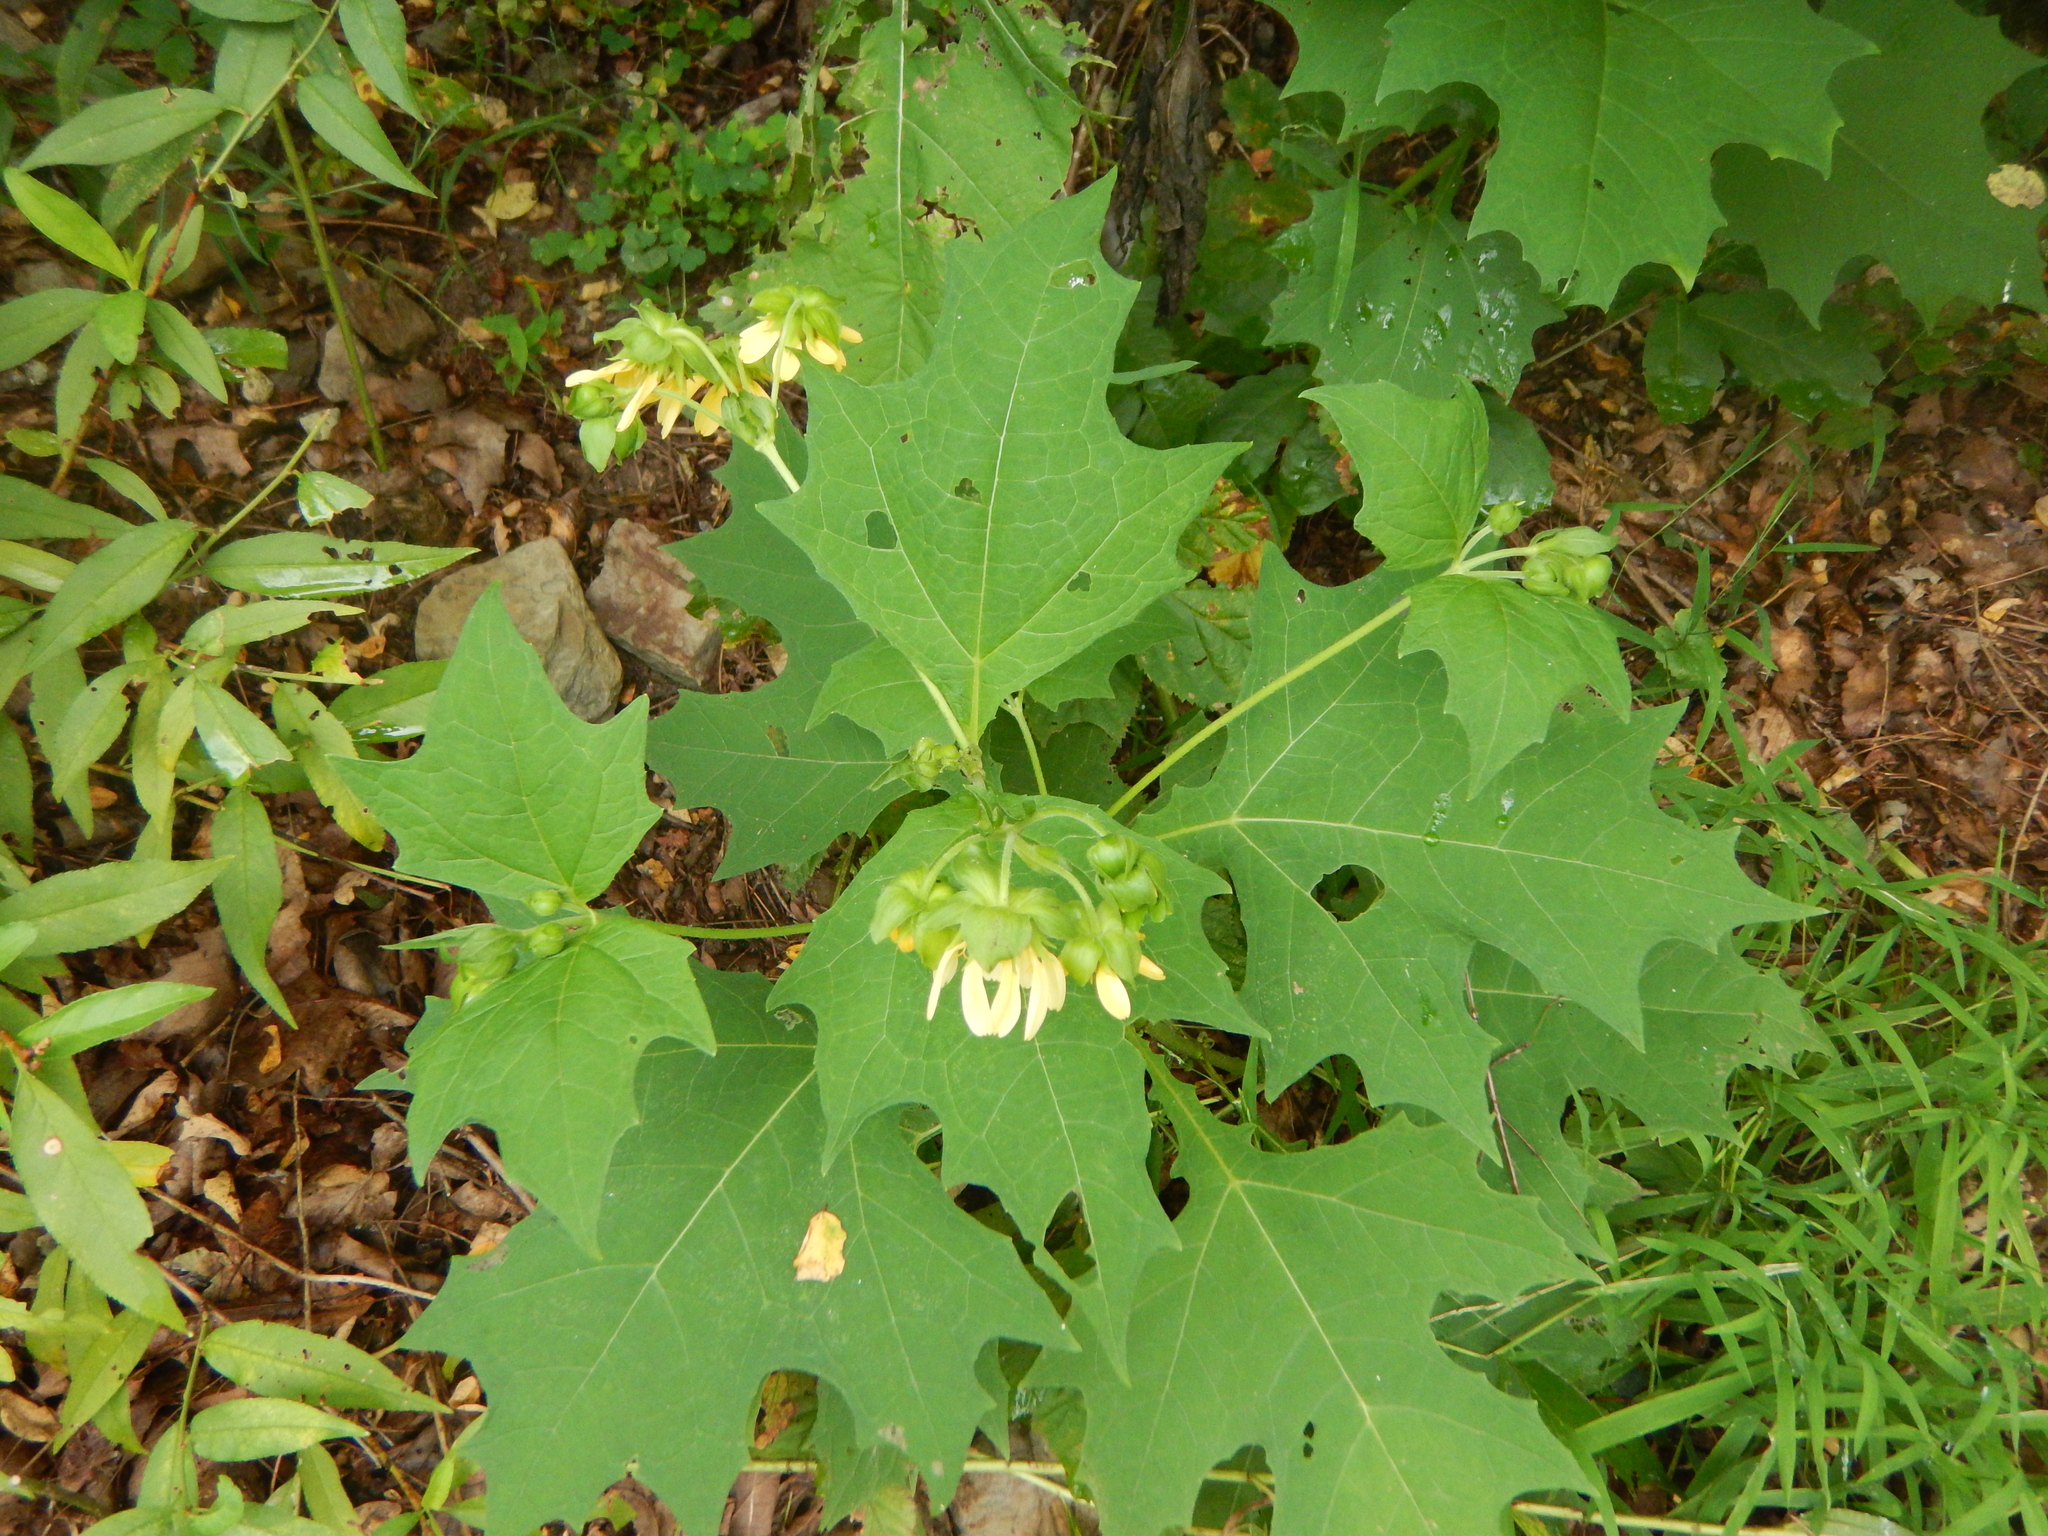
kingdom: Plantae
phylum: Tracheophyta
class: Magnoliopsida
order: Asterales
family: Asteraceae
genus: Smallanthus
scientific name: Smallanthus uvedalia
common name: Bear's-foot
